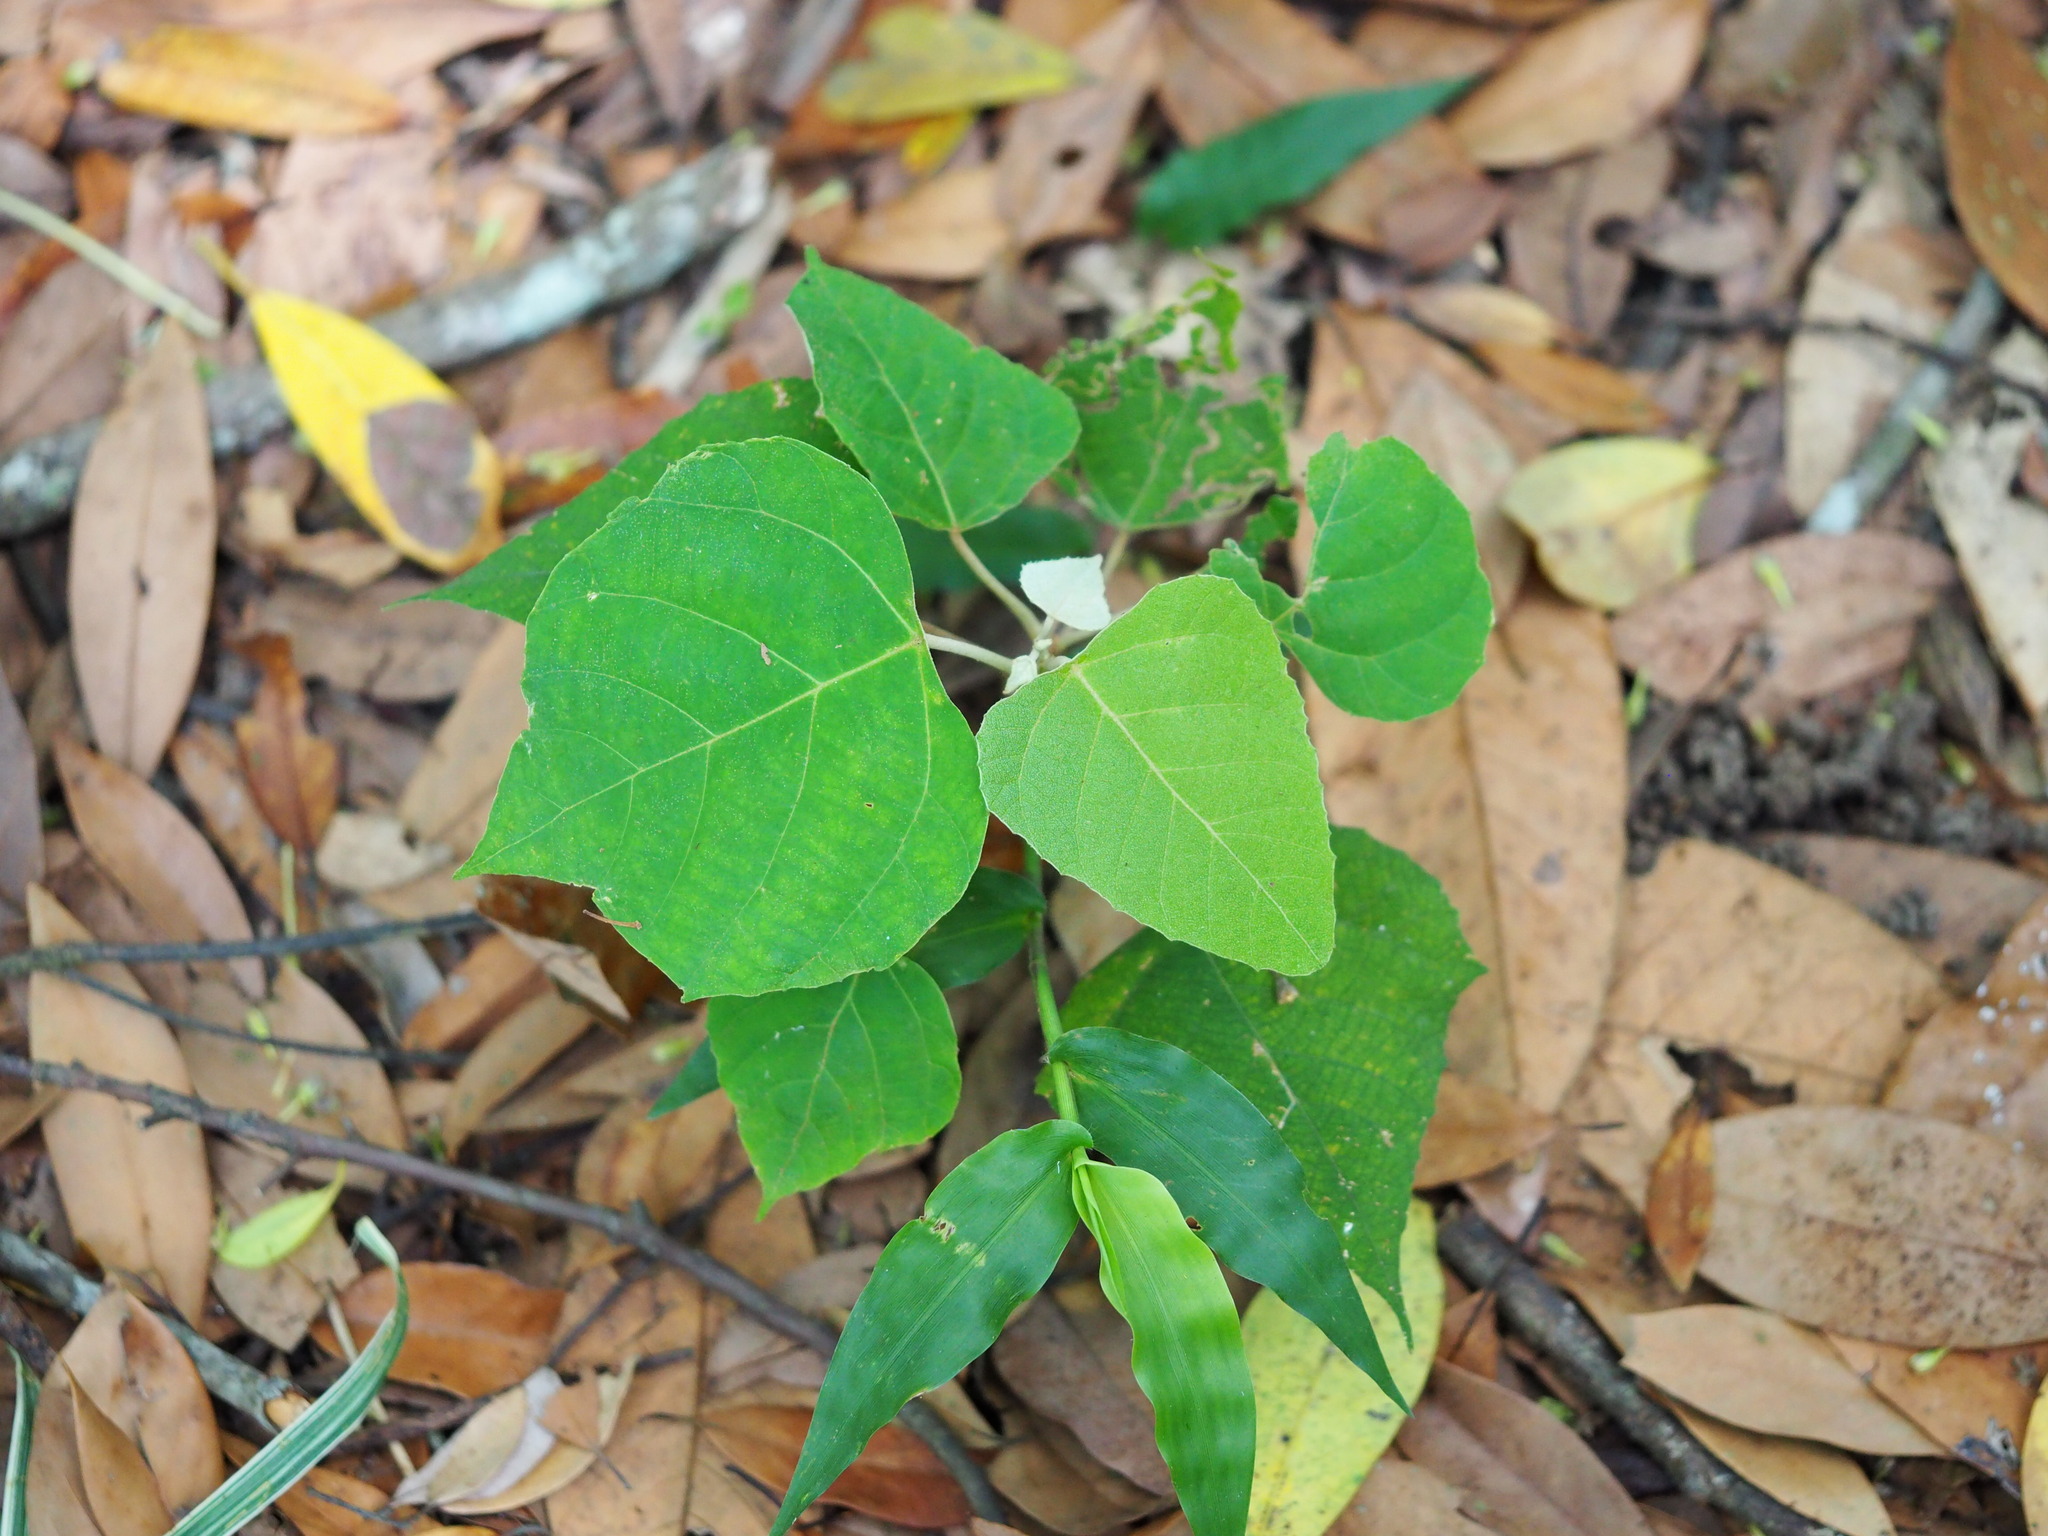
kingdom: Plantae
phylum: Tracheophyta
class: Magnoliopsida
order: Malpighiales
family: Euphorbiaceae
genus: Mallotus
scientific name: Mallotus paniculatus
